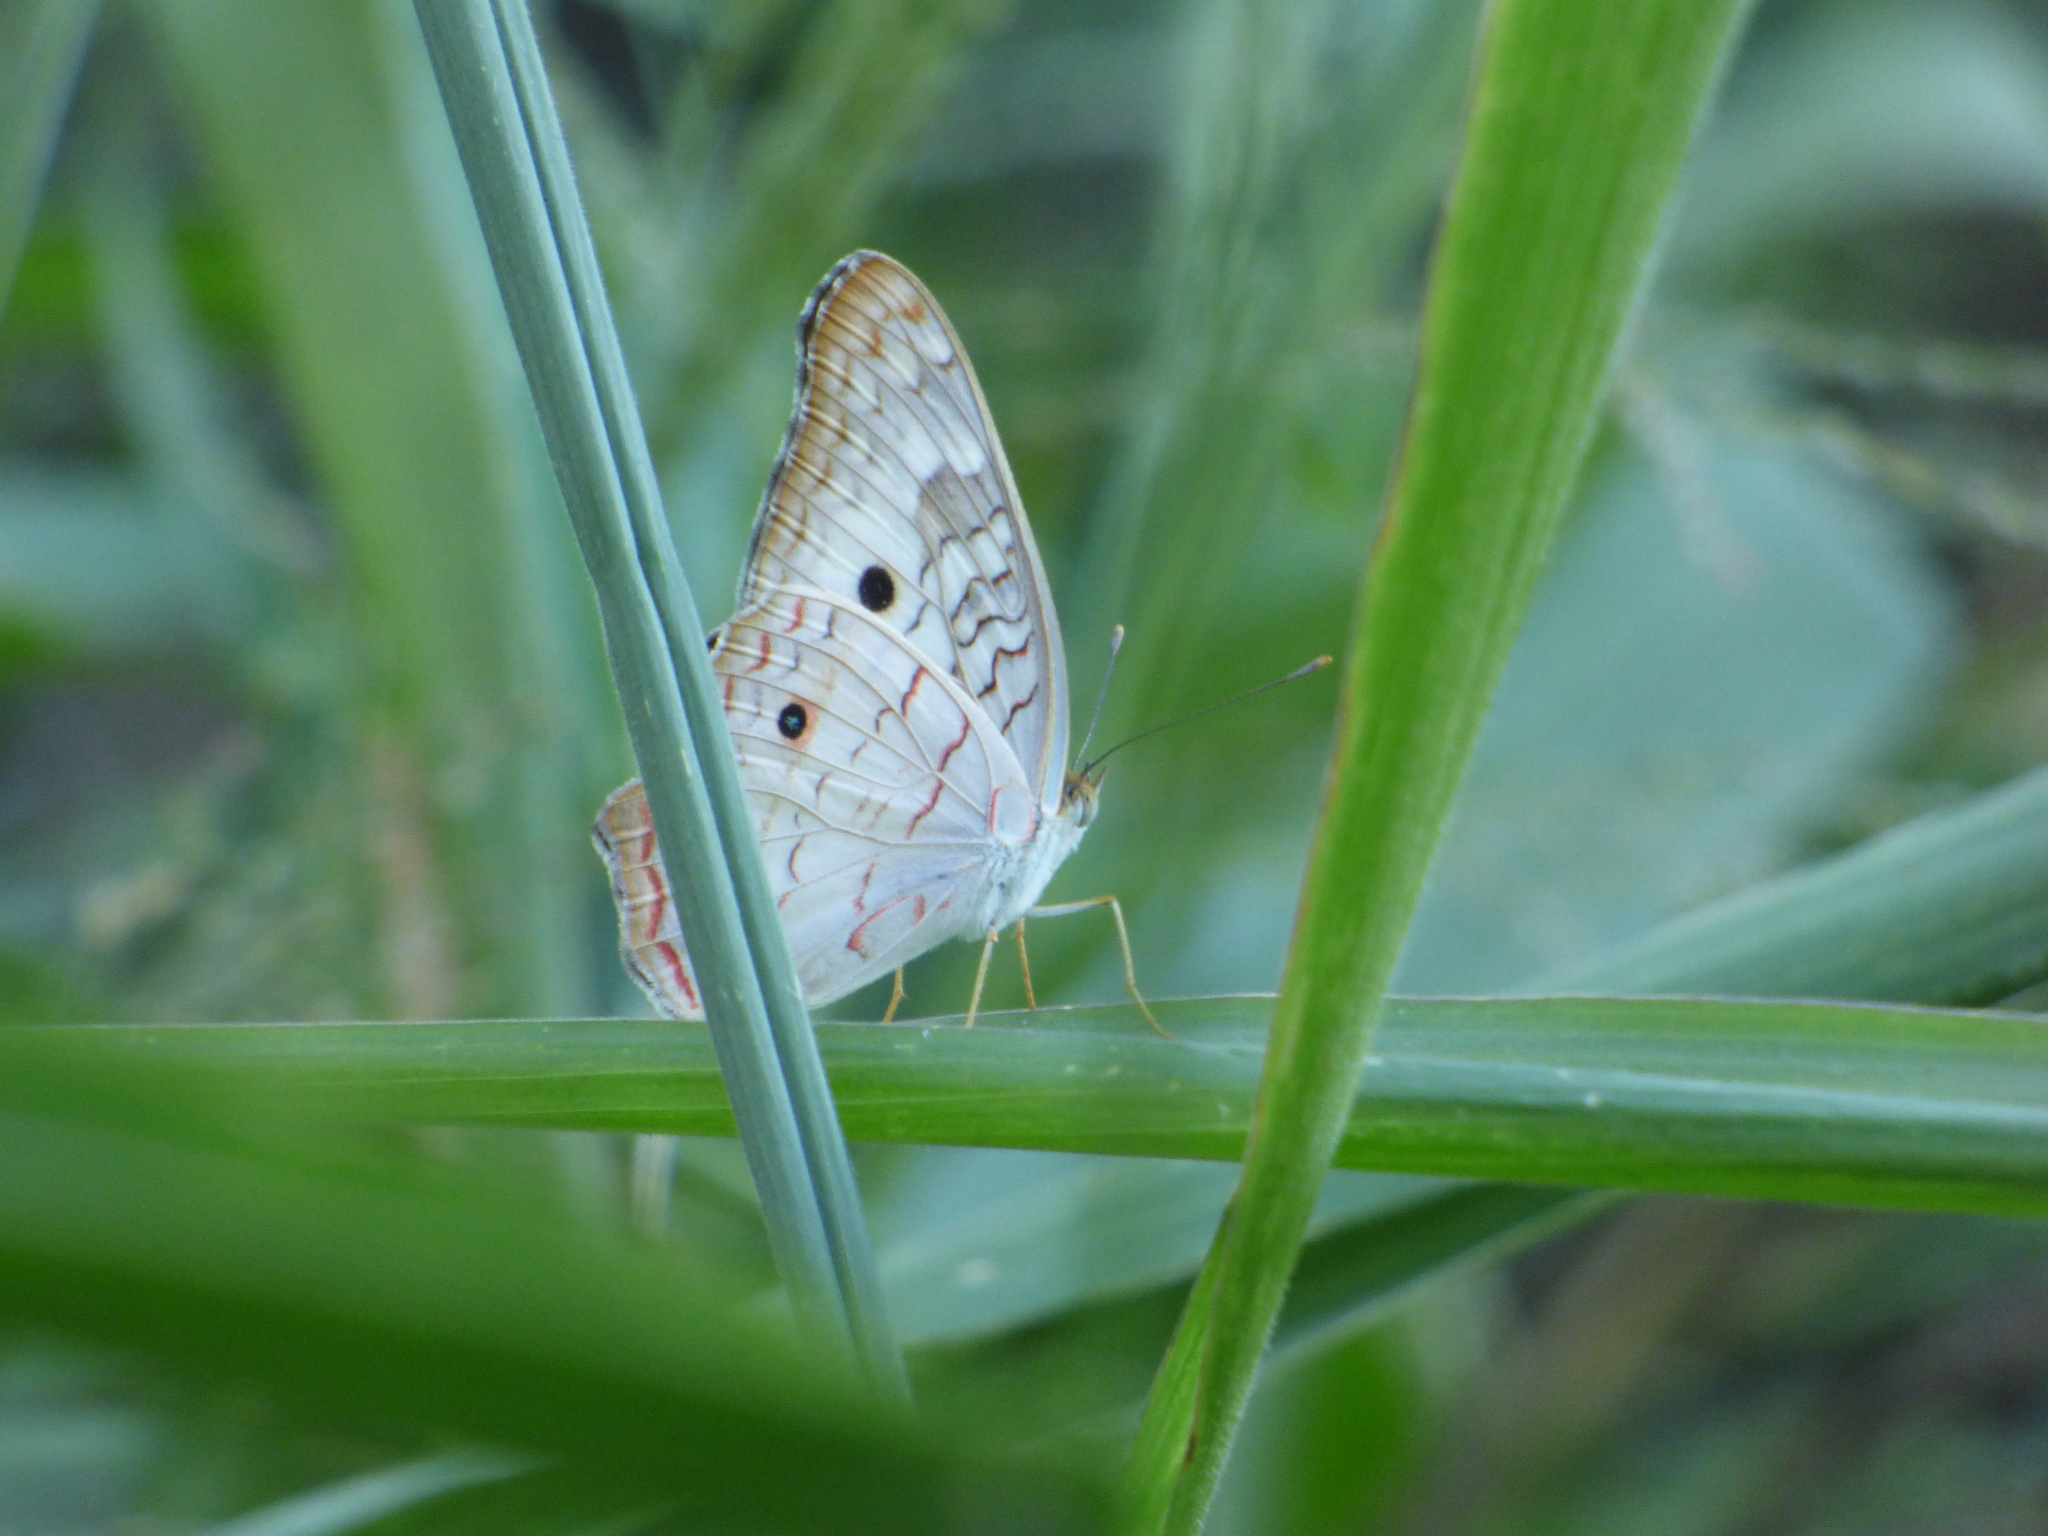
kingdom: Animalia
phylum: Arthropoda
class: Insecta
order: Lepidoptera
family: Nymphalidae
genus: Anartia
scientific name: Anartia jatrophae
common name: White peacock
